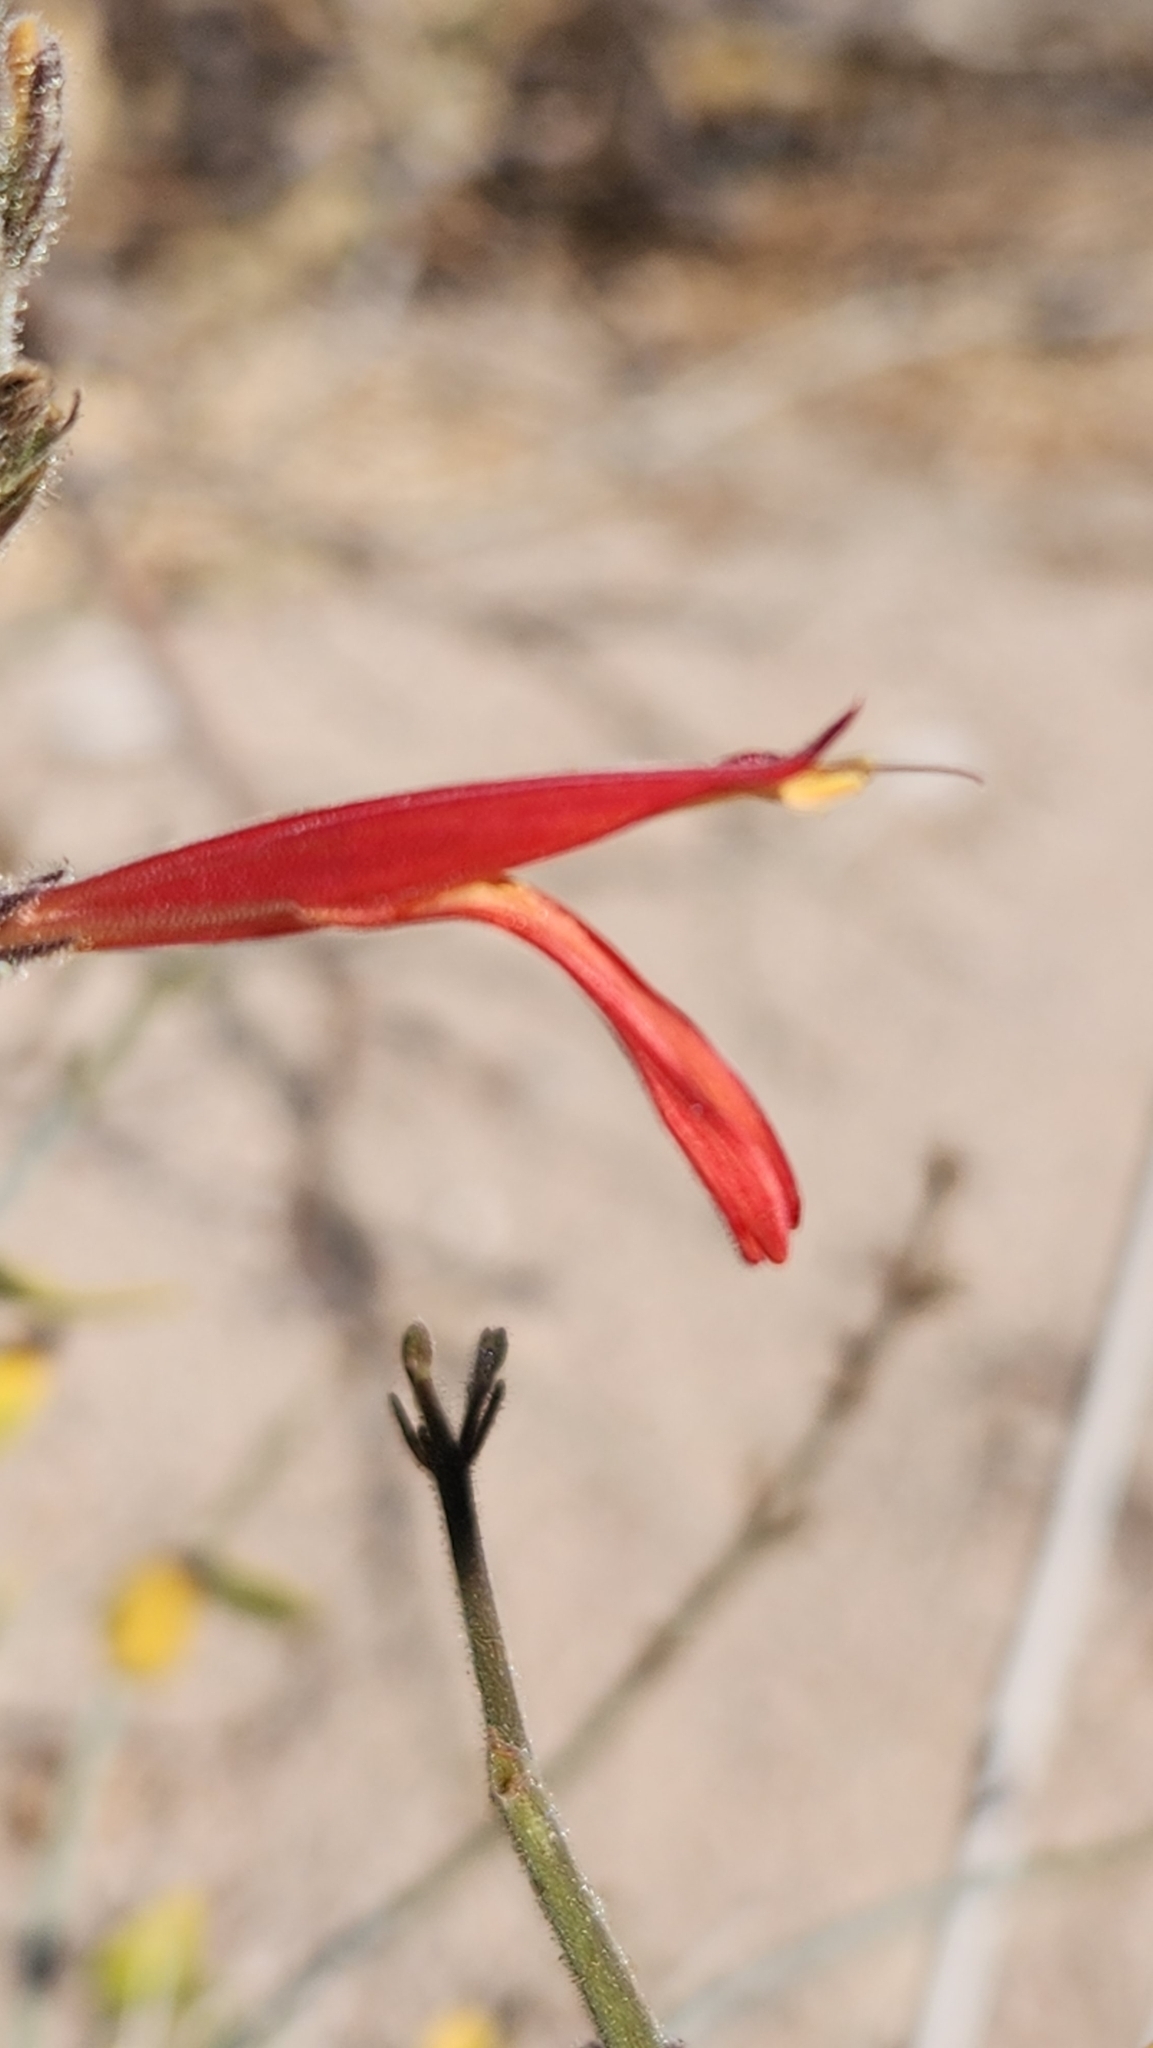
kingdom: Plantae
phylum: Tracheophyta
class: Magnoliopsida
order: Lamiales
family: Acanthaceae
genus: Justicia
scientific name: Justicia californica
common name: Chuparosa-honeysuckle
